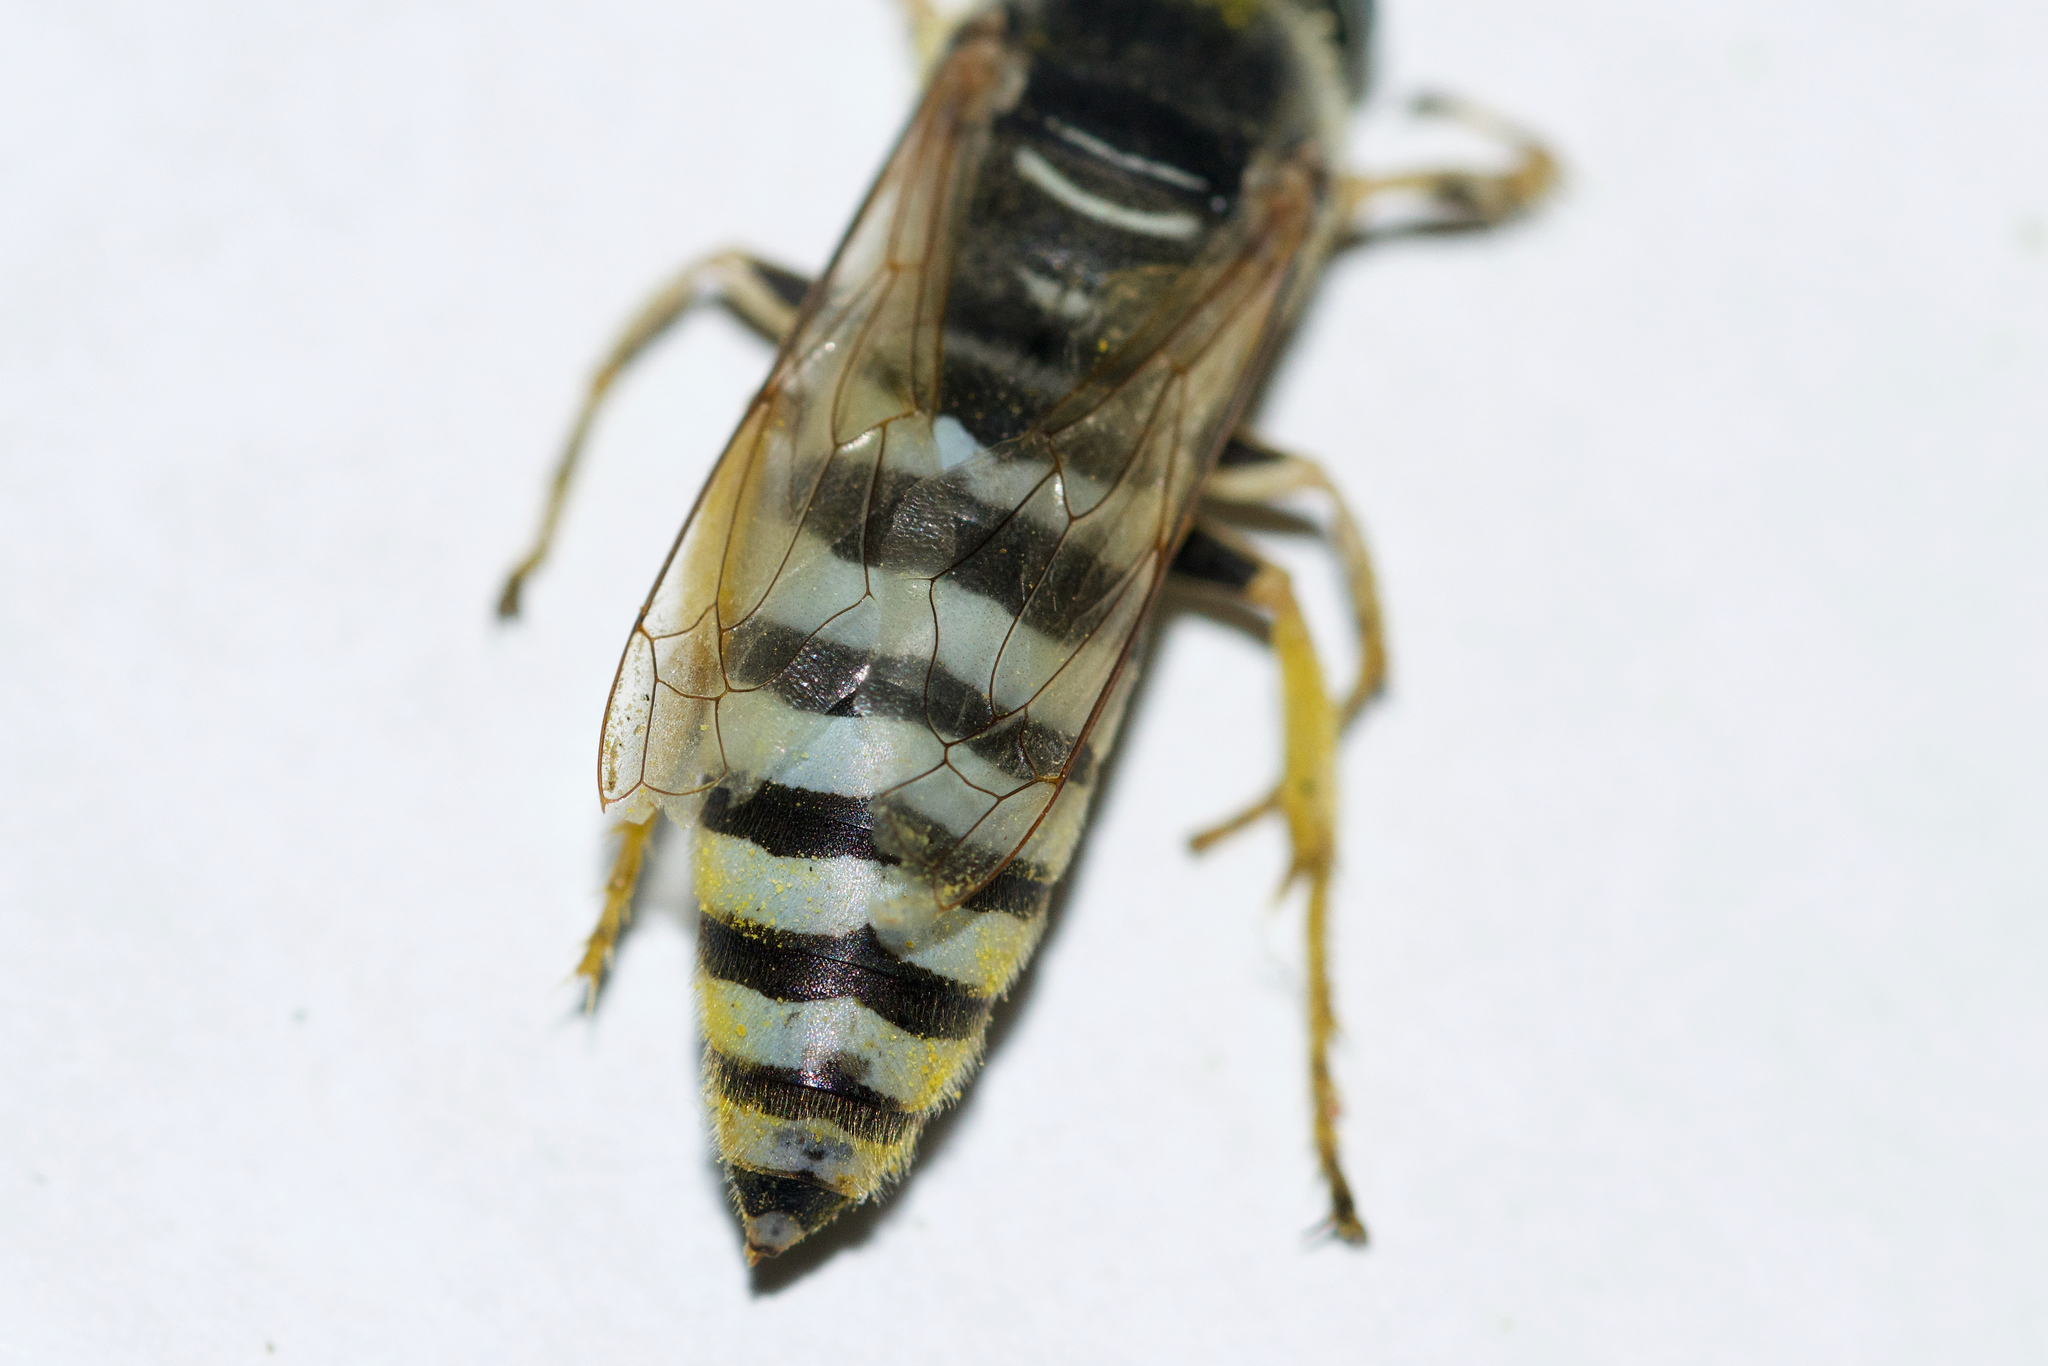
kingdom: Animalia
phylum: Arthropoda
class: Insecta
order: Hymenoptera
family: Crabronidae
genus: Bembix
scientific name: Bembix pallidipicta
